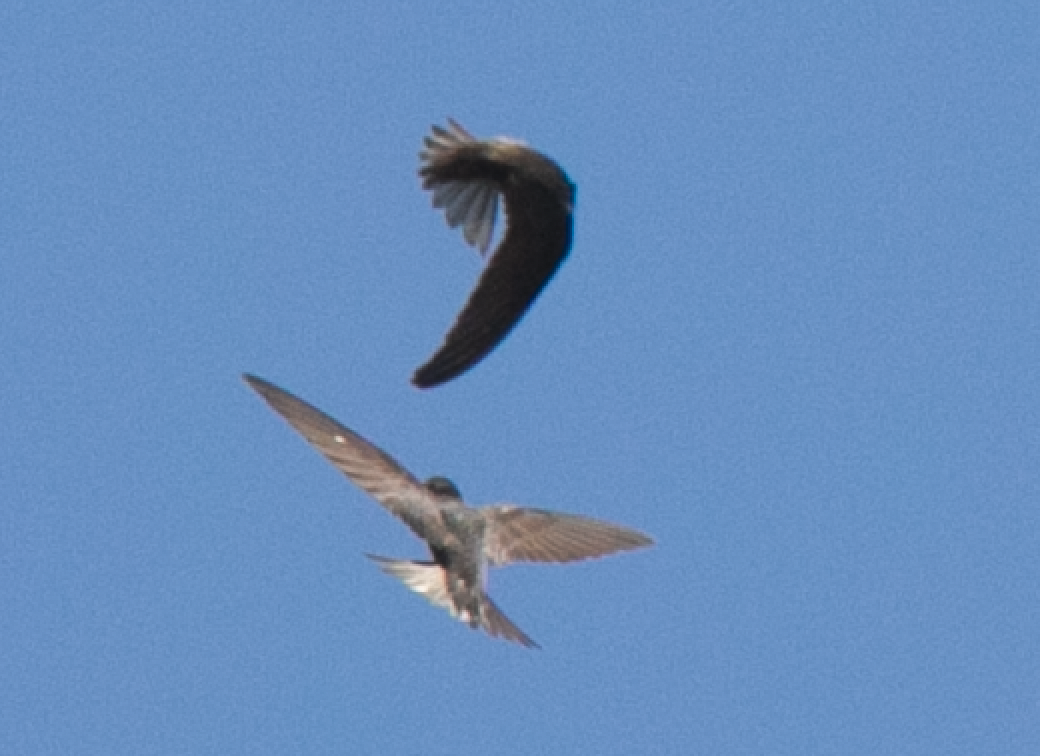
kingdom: Animalia
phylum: Chordata
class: Aves
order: Apodiformes
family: Apodidae
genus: Apus
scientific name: Apus apus
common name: Common swift
